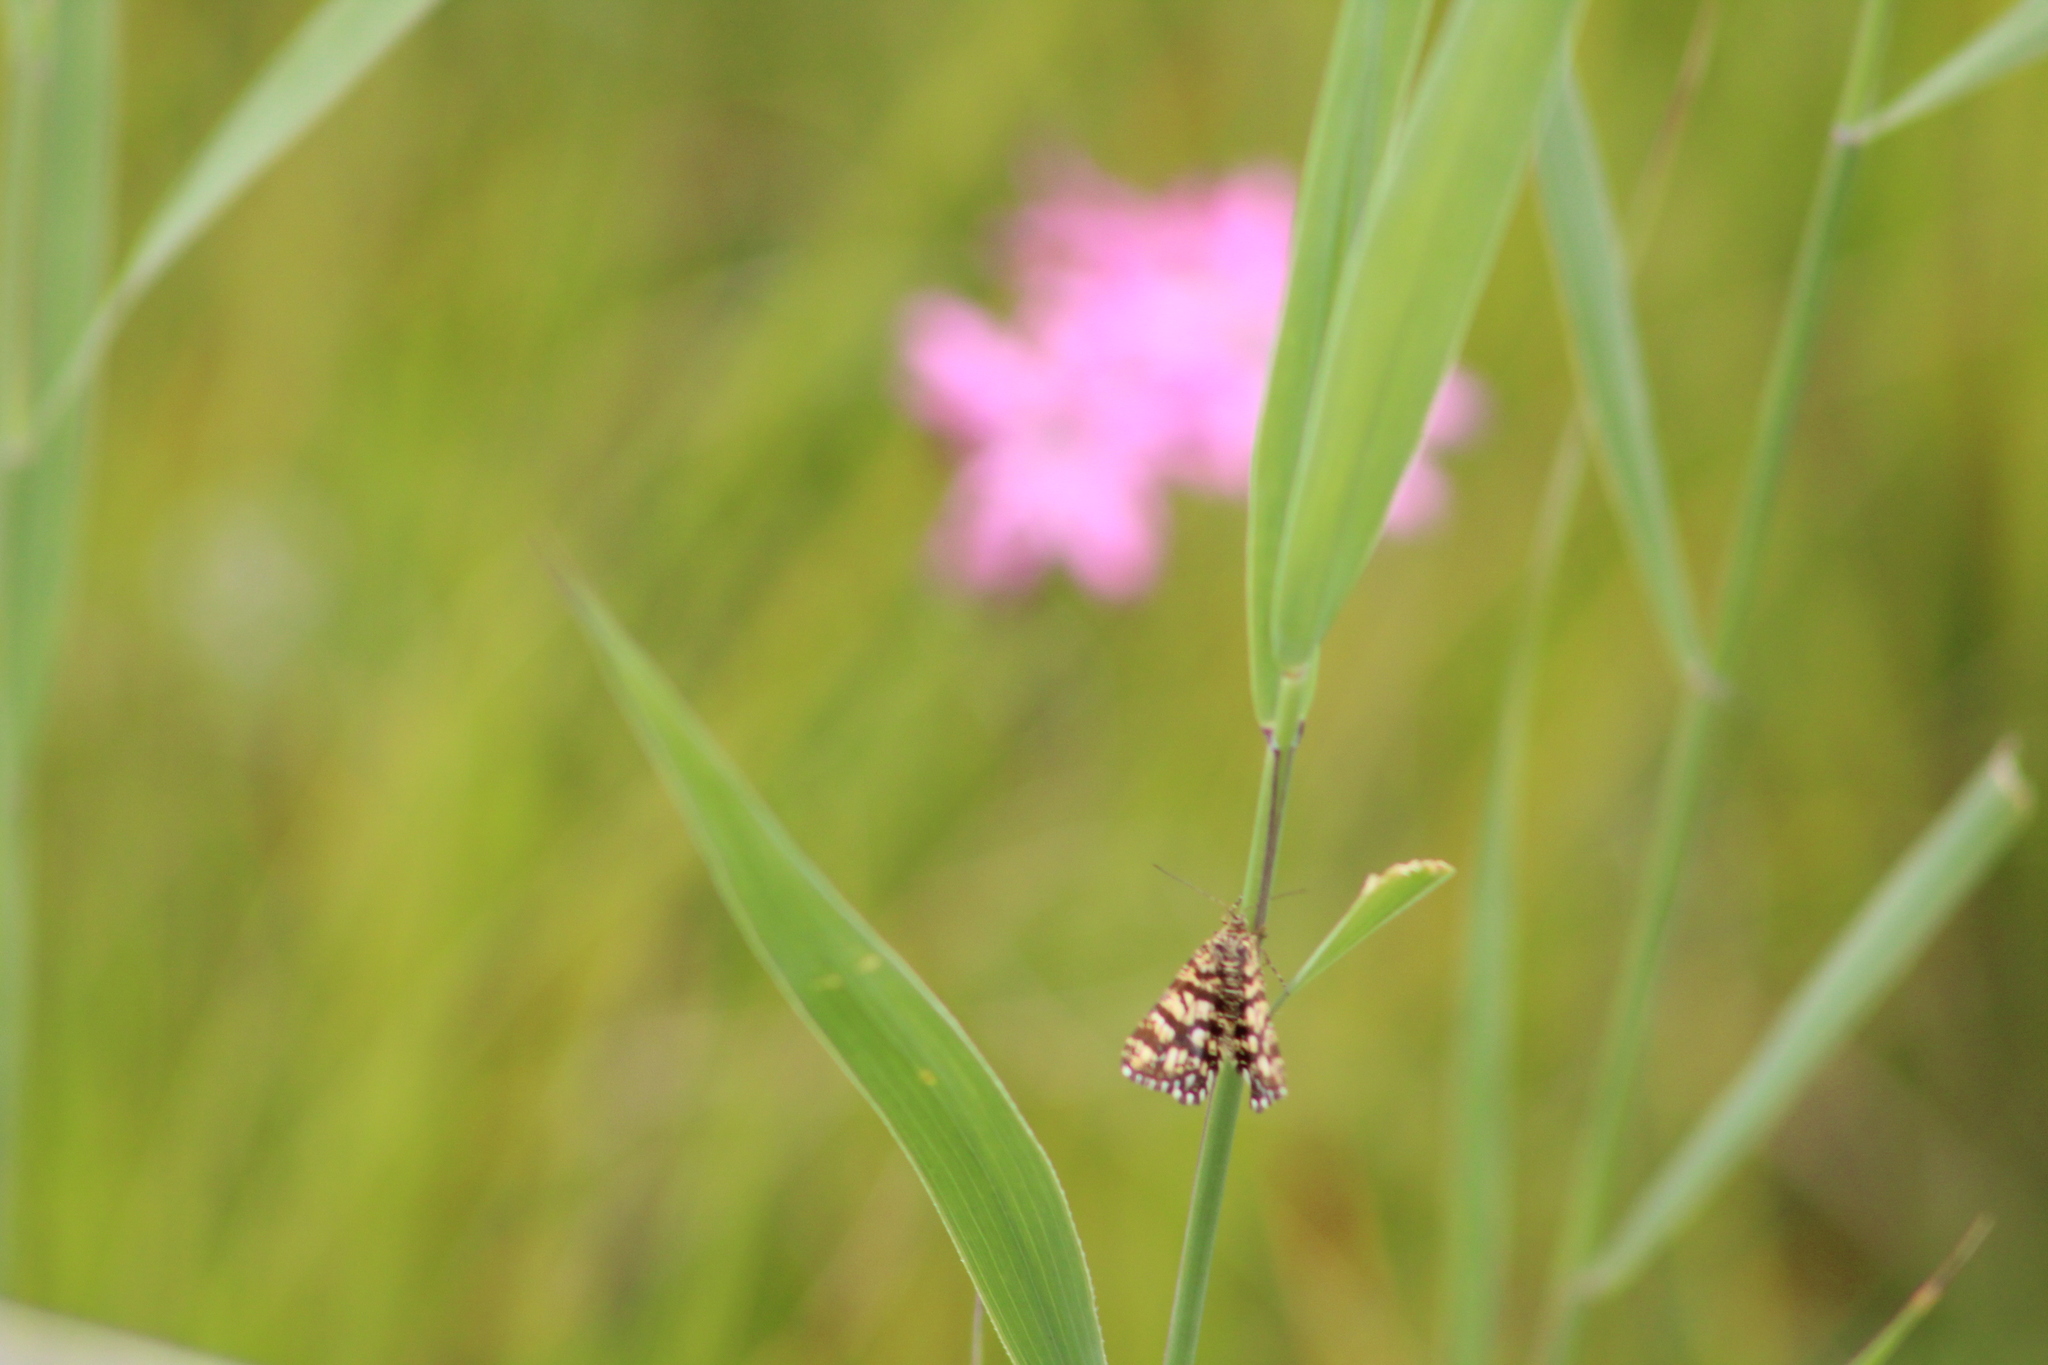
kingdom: Animalia
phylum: Arthropoda
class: Insecta
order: Lepidoptera
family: Geometridae
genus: Chiasmia
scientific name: Chiasmia clathrata
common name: Latticed heath
